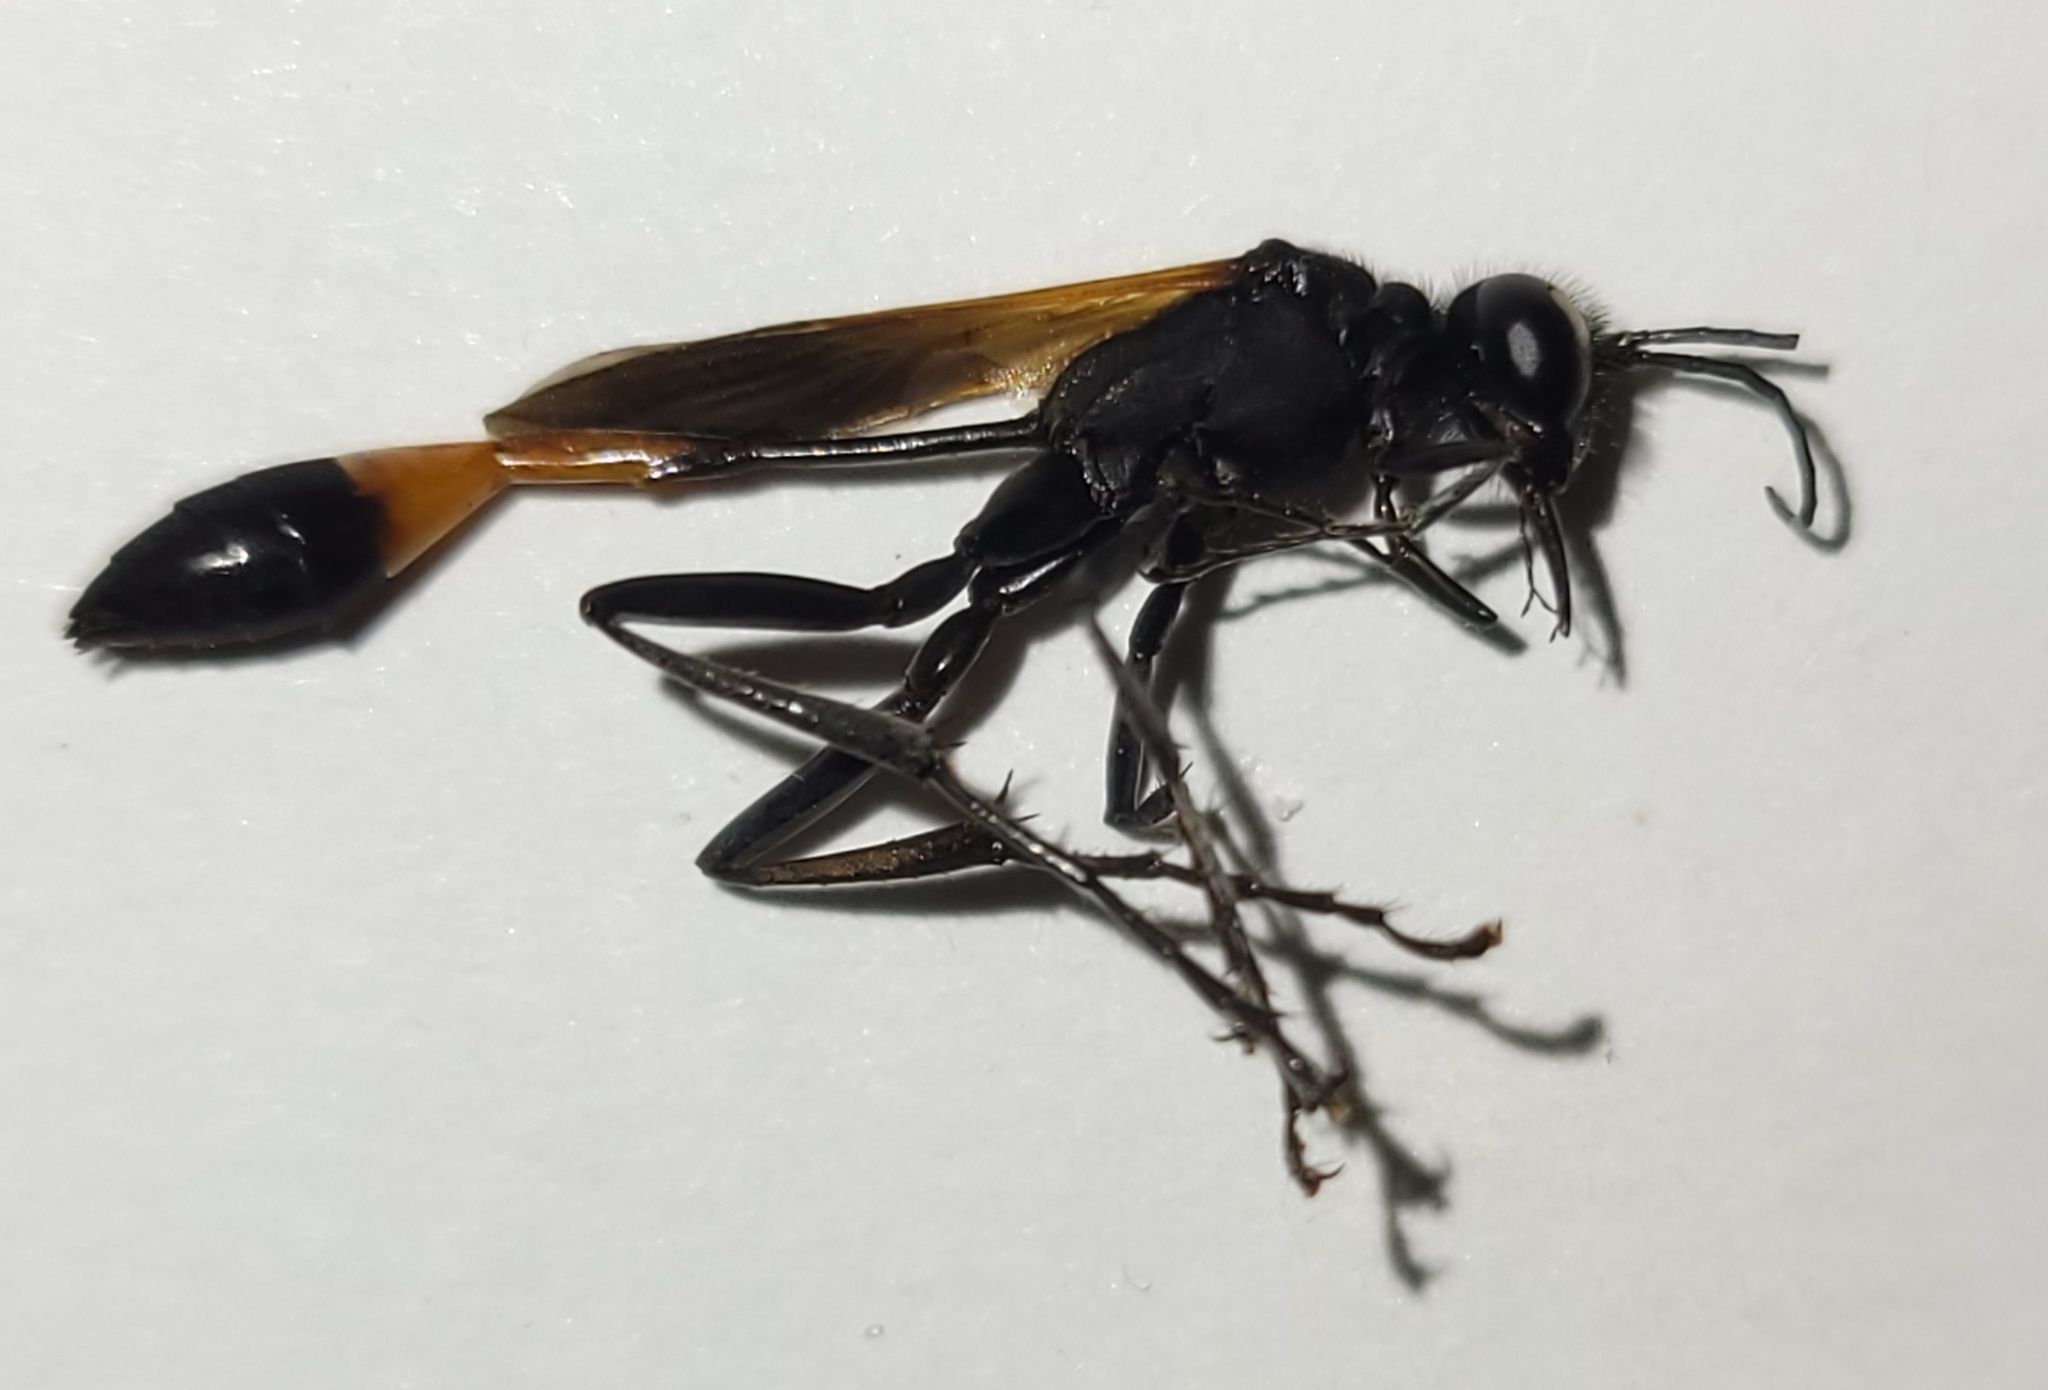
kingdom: Animalia
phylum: Arthropoda
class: Insecta
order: Hymenoptera
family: Sphecidae
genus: Ammophila
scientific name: Ammophila pictipennis
